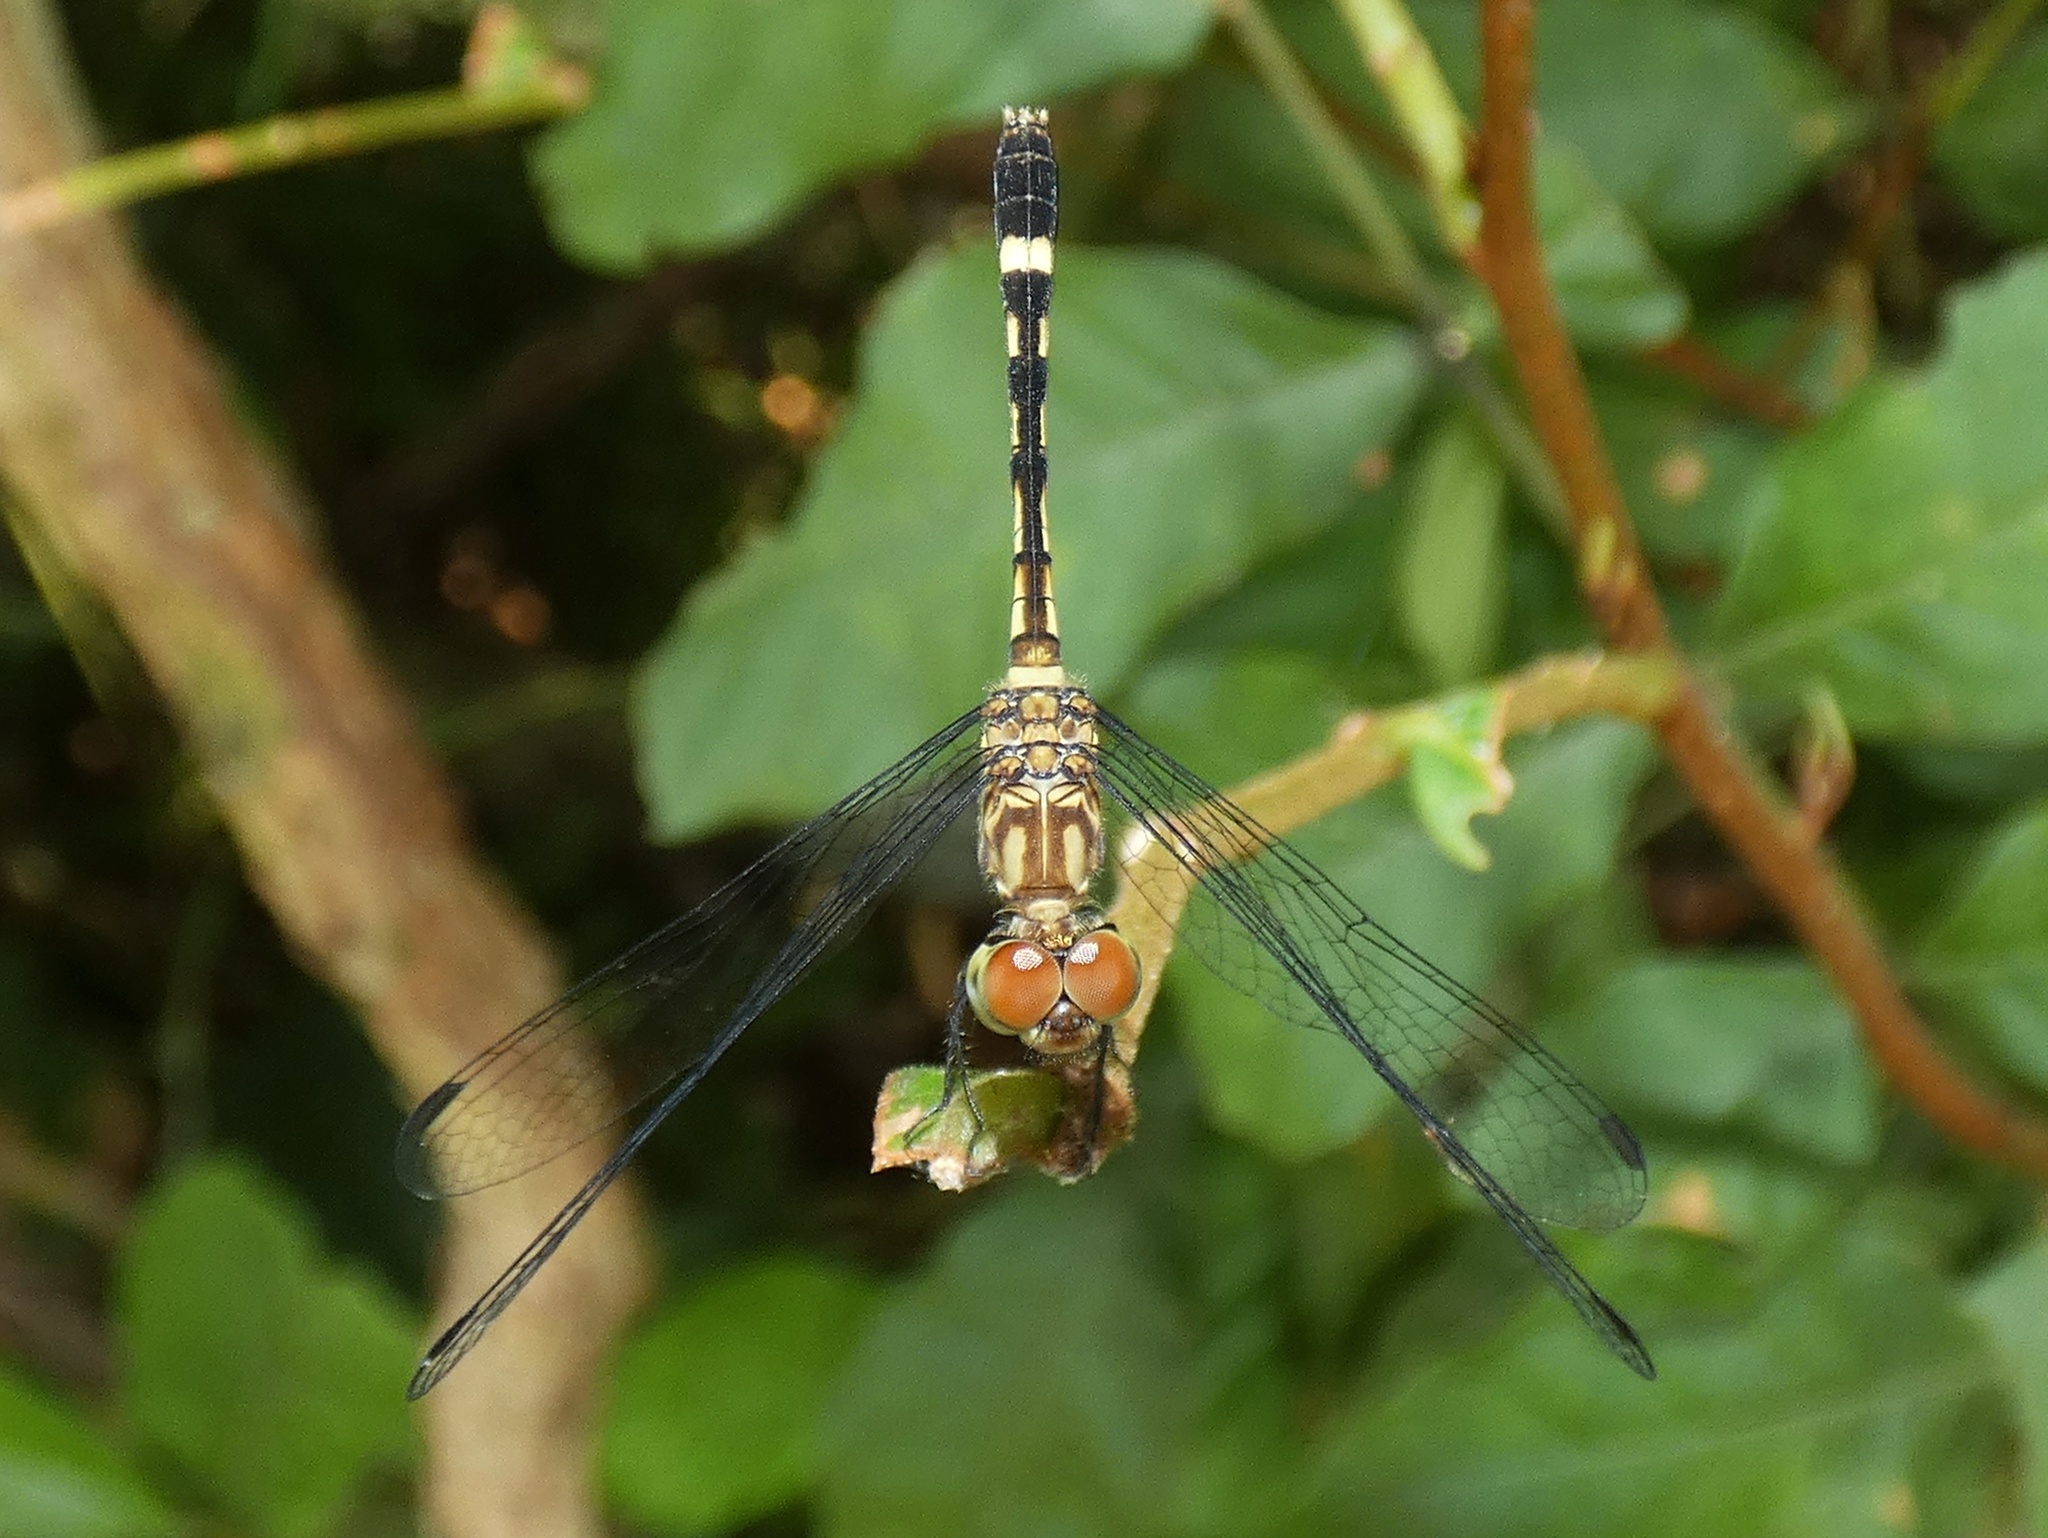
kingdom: Animalia
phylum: Arthropoda
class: Insecta
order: Odonata
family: Libellulidae
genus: Micrathyria
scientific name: Micrathyria ocellata
